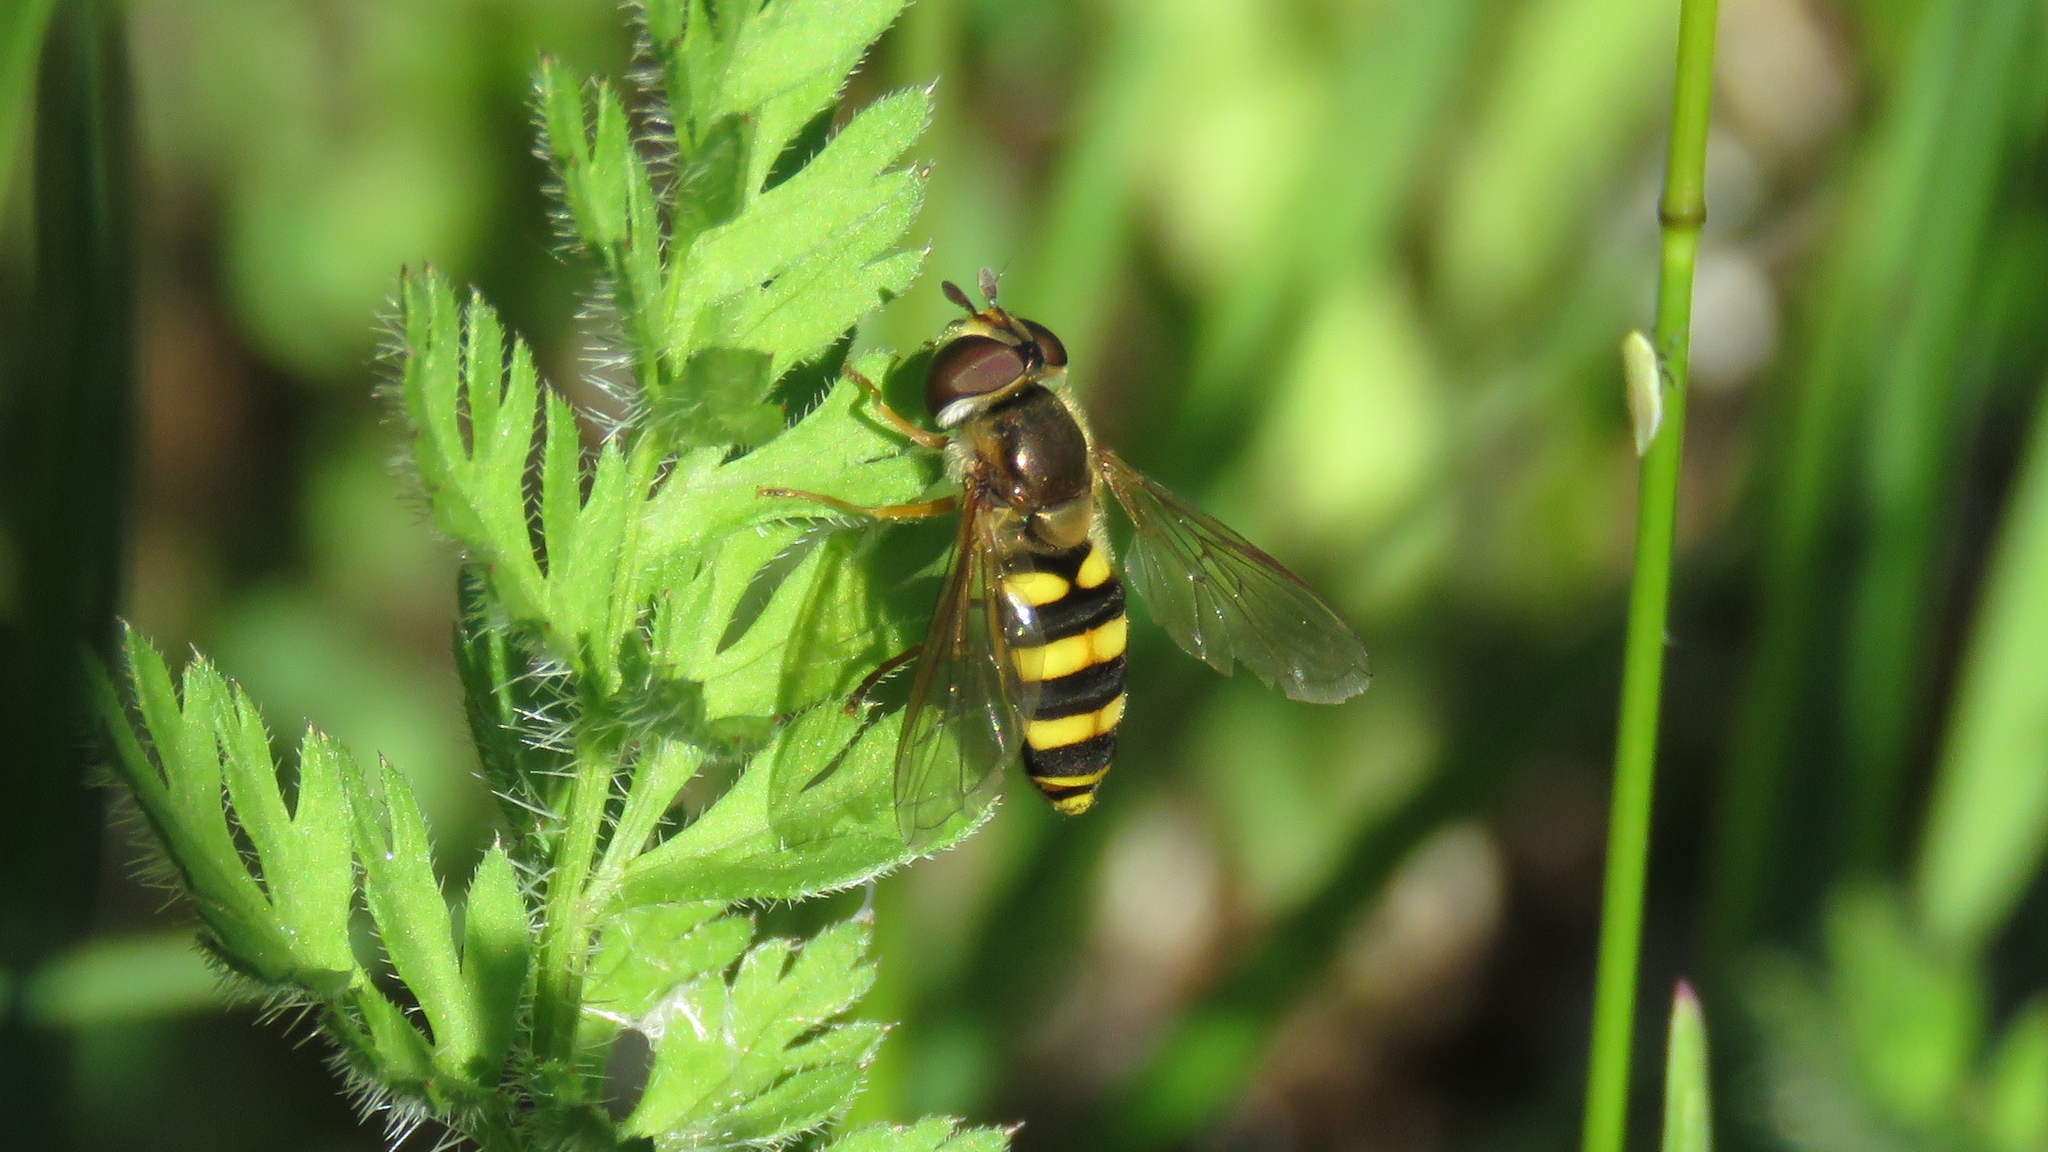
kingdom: Animalia
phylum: Arthropoda
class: Insecta
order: Diptera
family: Syrphidae
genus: Eupeodes
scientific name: Eupeodes
